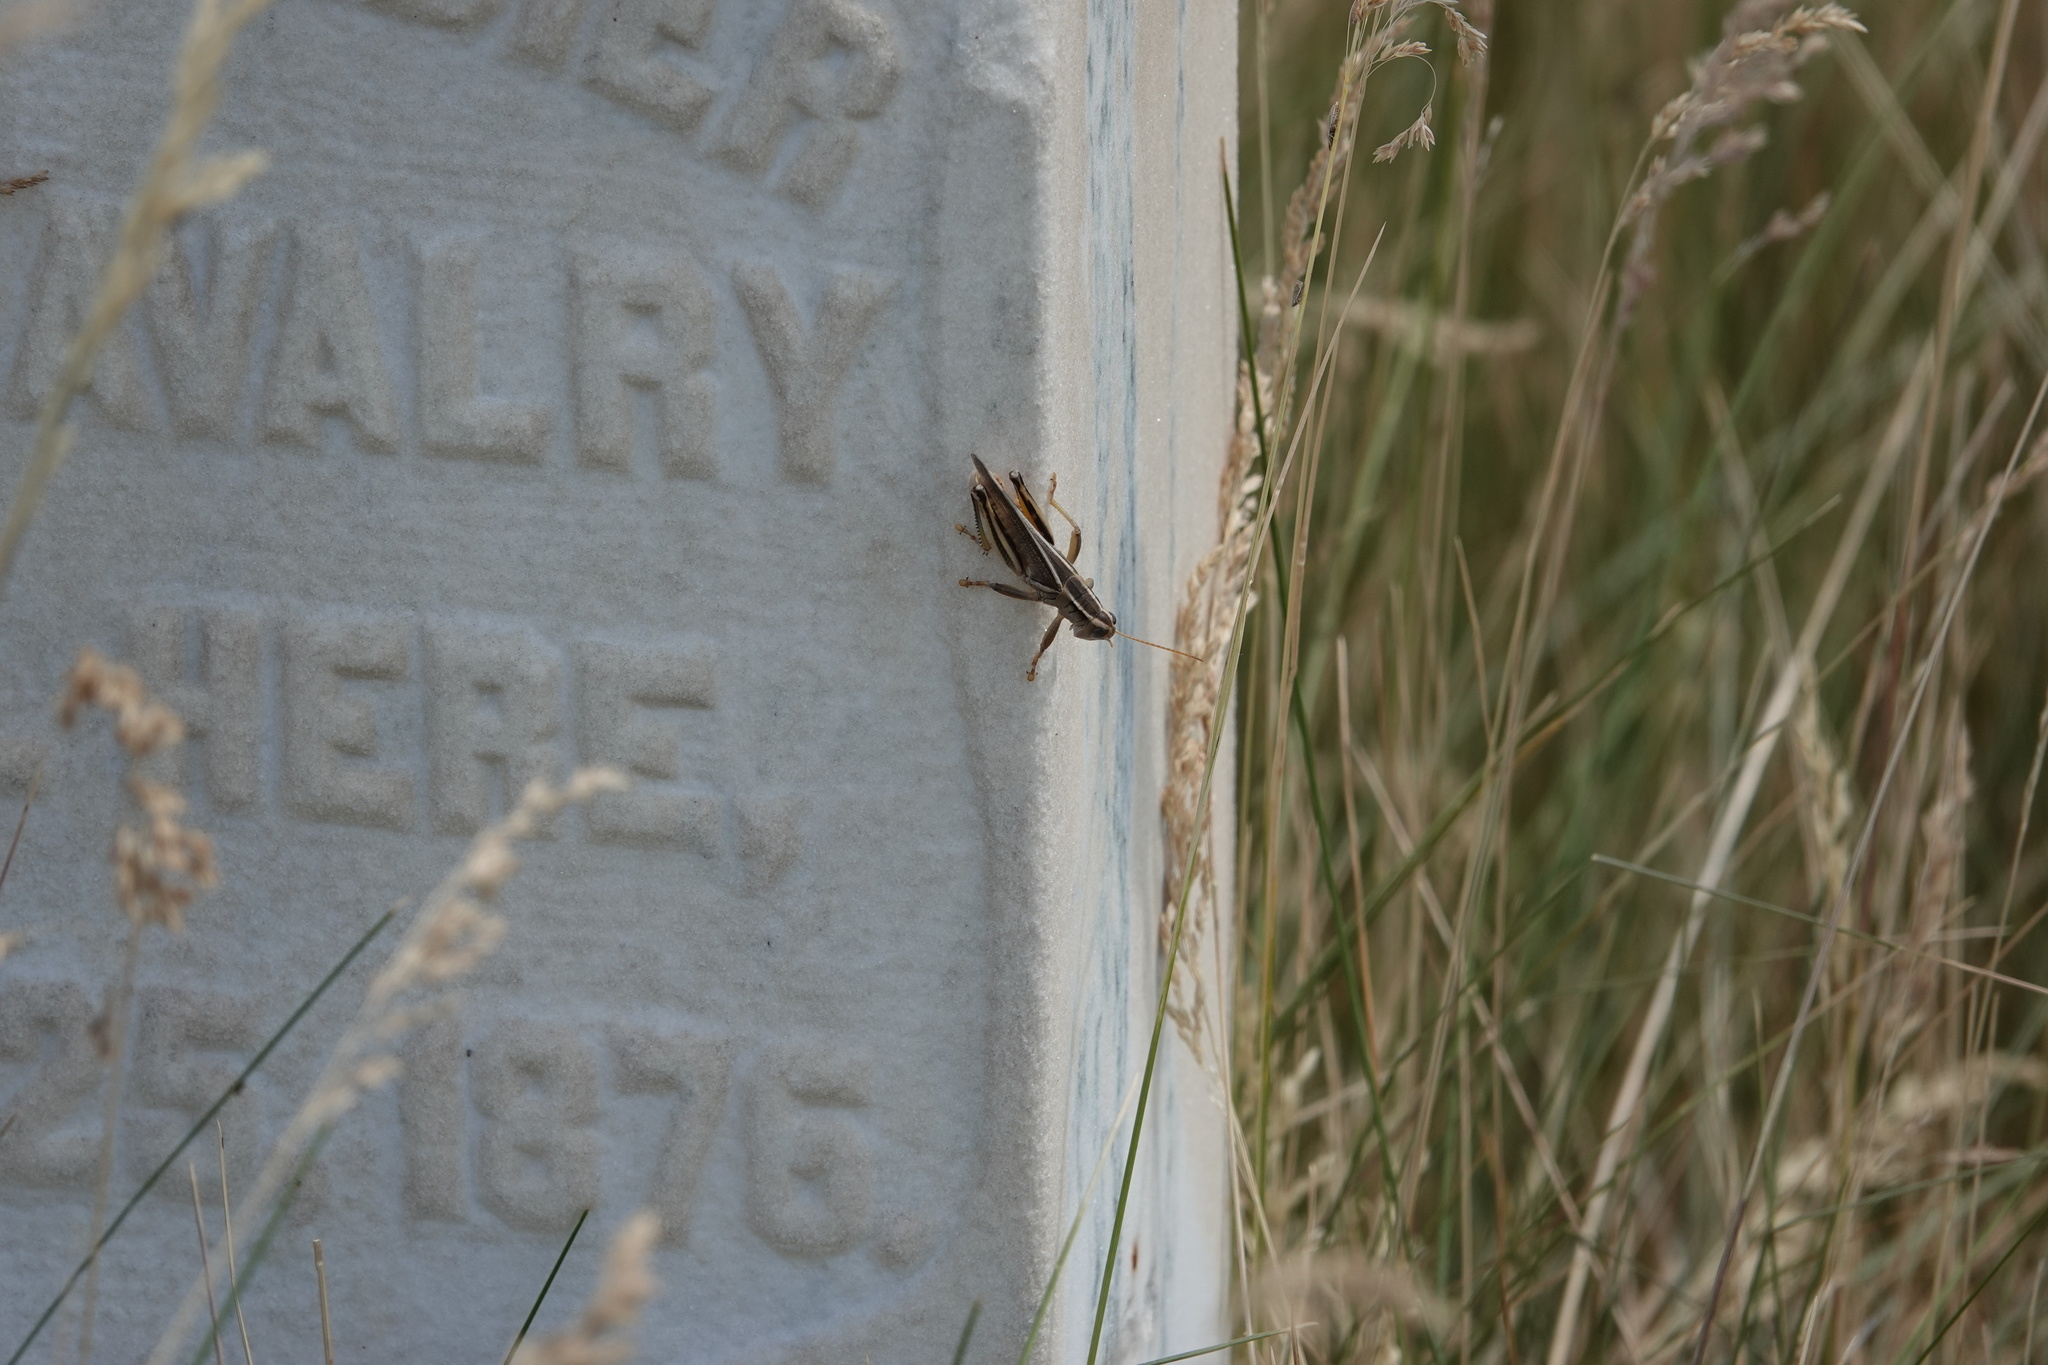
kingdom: Animalia
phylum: Arthropoda
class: Insecta
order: Orthoptera
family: Acrididae
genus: Melanoplus
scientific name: Melanoplus bivittatus
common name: Two-striped grasshopper
